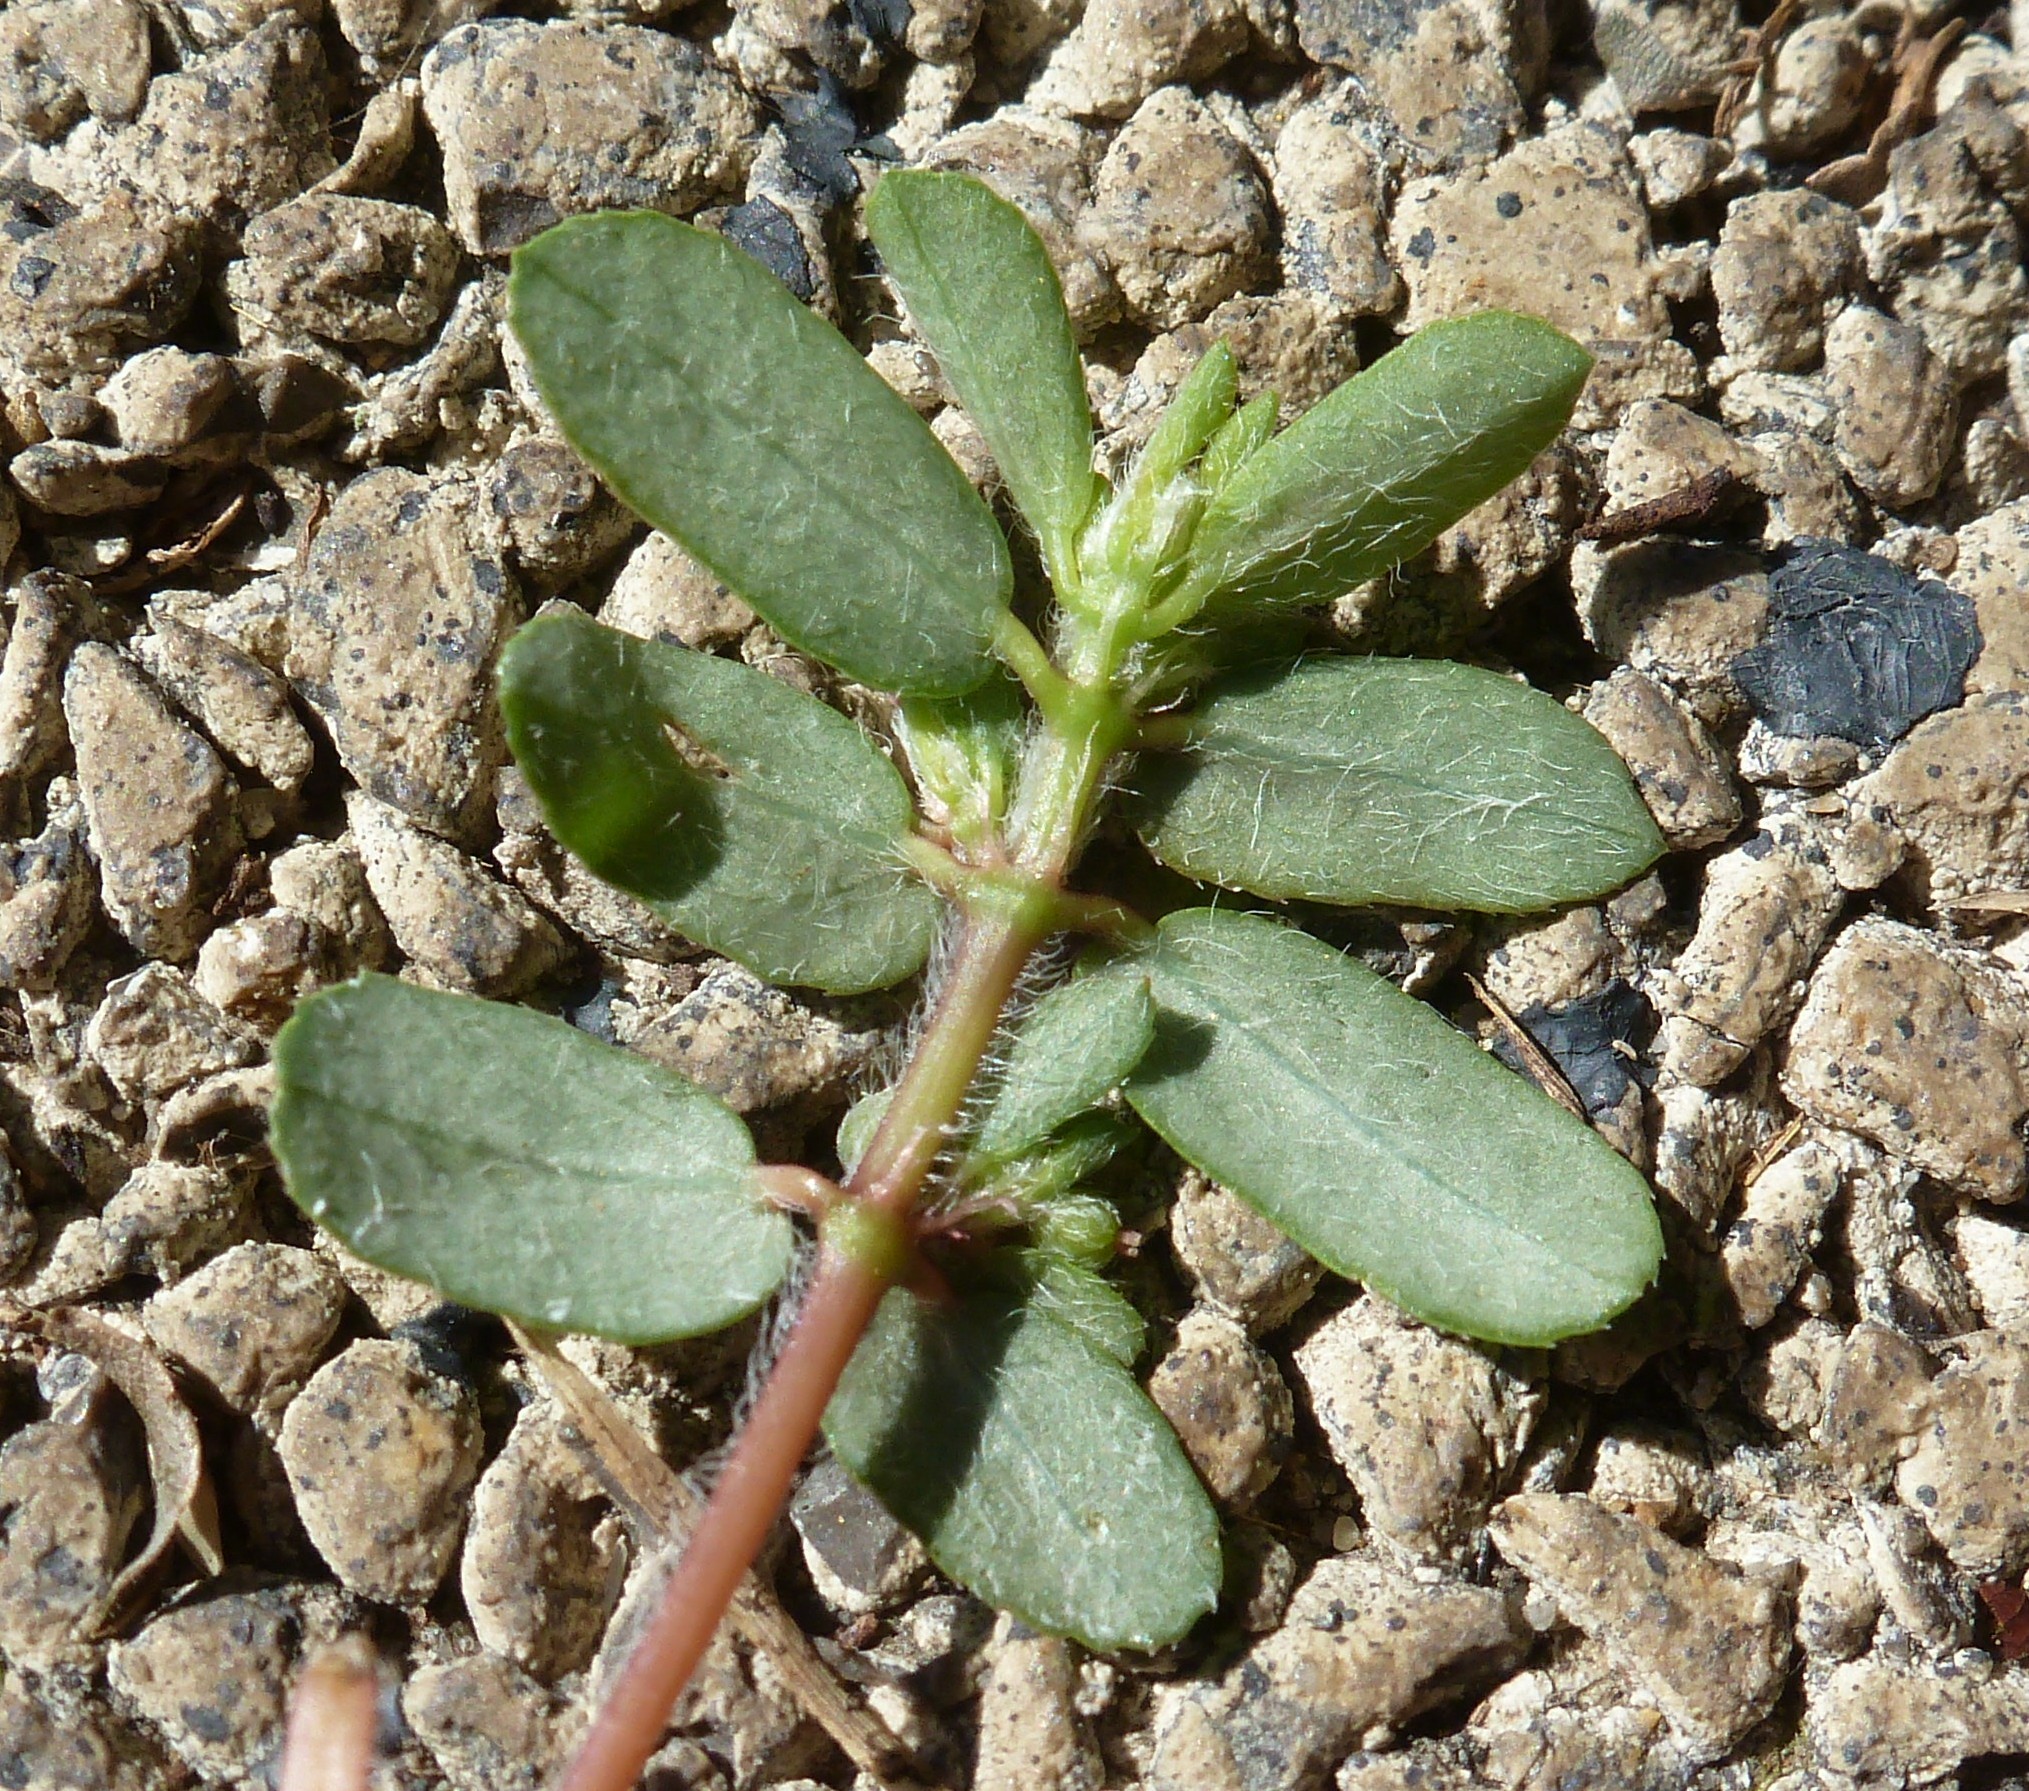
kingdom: Plantae
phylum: Tracheophyta
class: Magnoliopsida
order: Malpighiales
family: Euphorbiaceae
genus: Euphorbia
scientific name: Euphorbia maculata
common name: Spotted spurge
